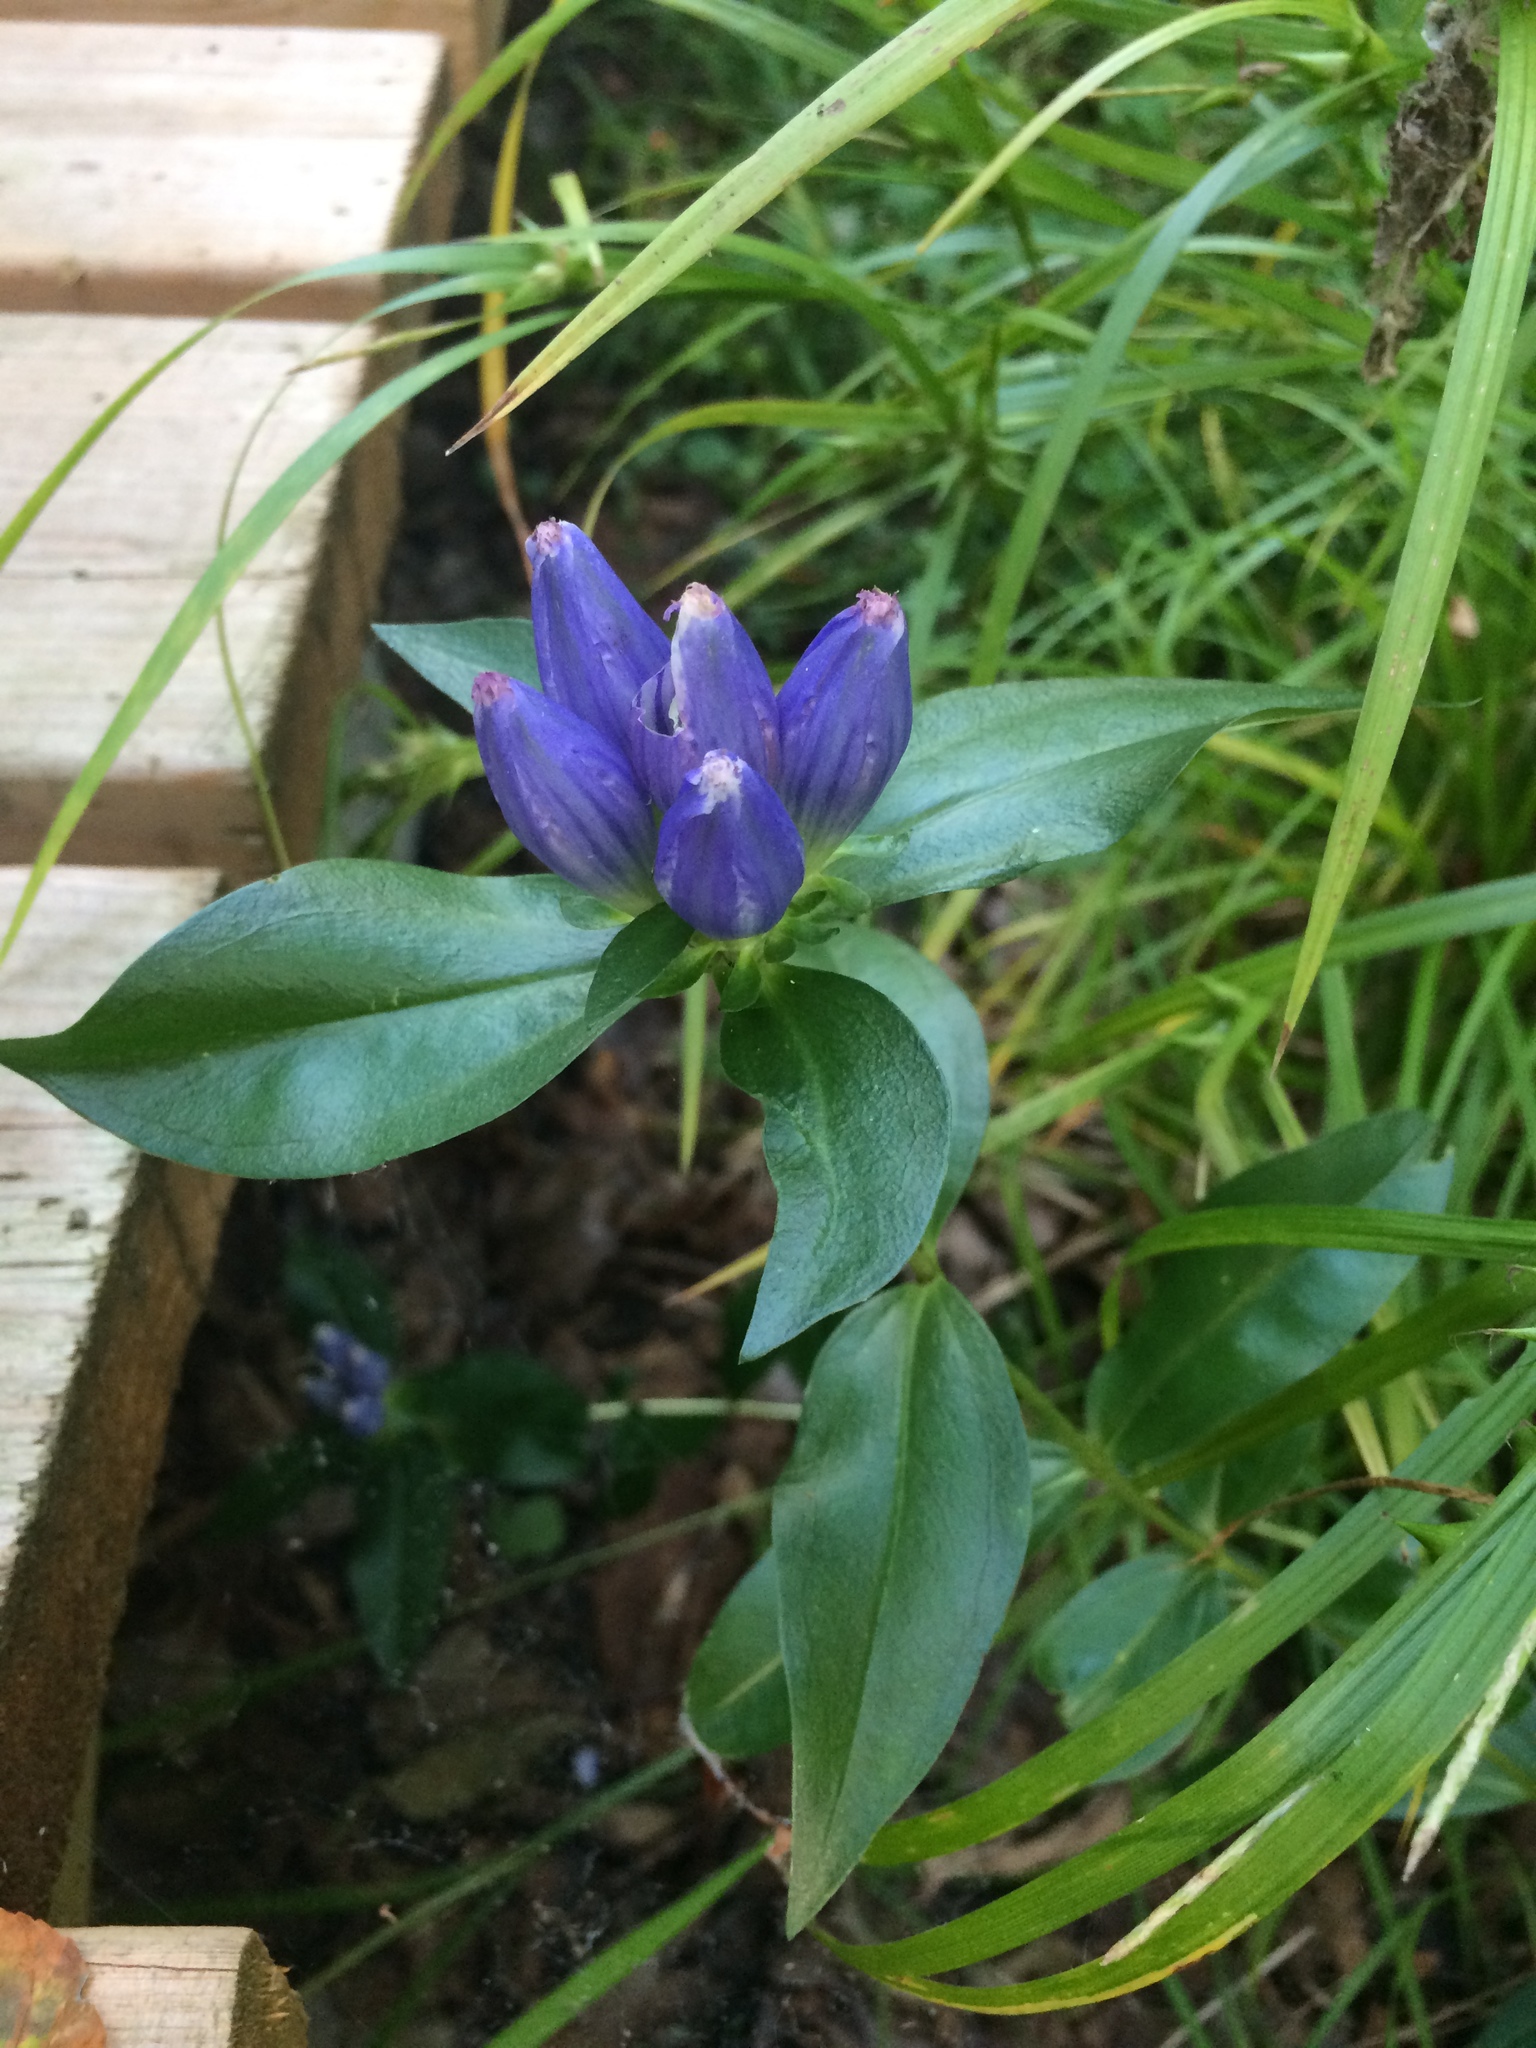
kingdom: Plantae
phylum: Tracheophyta
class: Magnoliopsida
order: Gentianales
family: Gentianaceae
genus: Gentiana
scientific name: Gentiana andrewsii
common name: Bottle gentian
